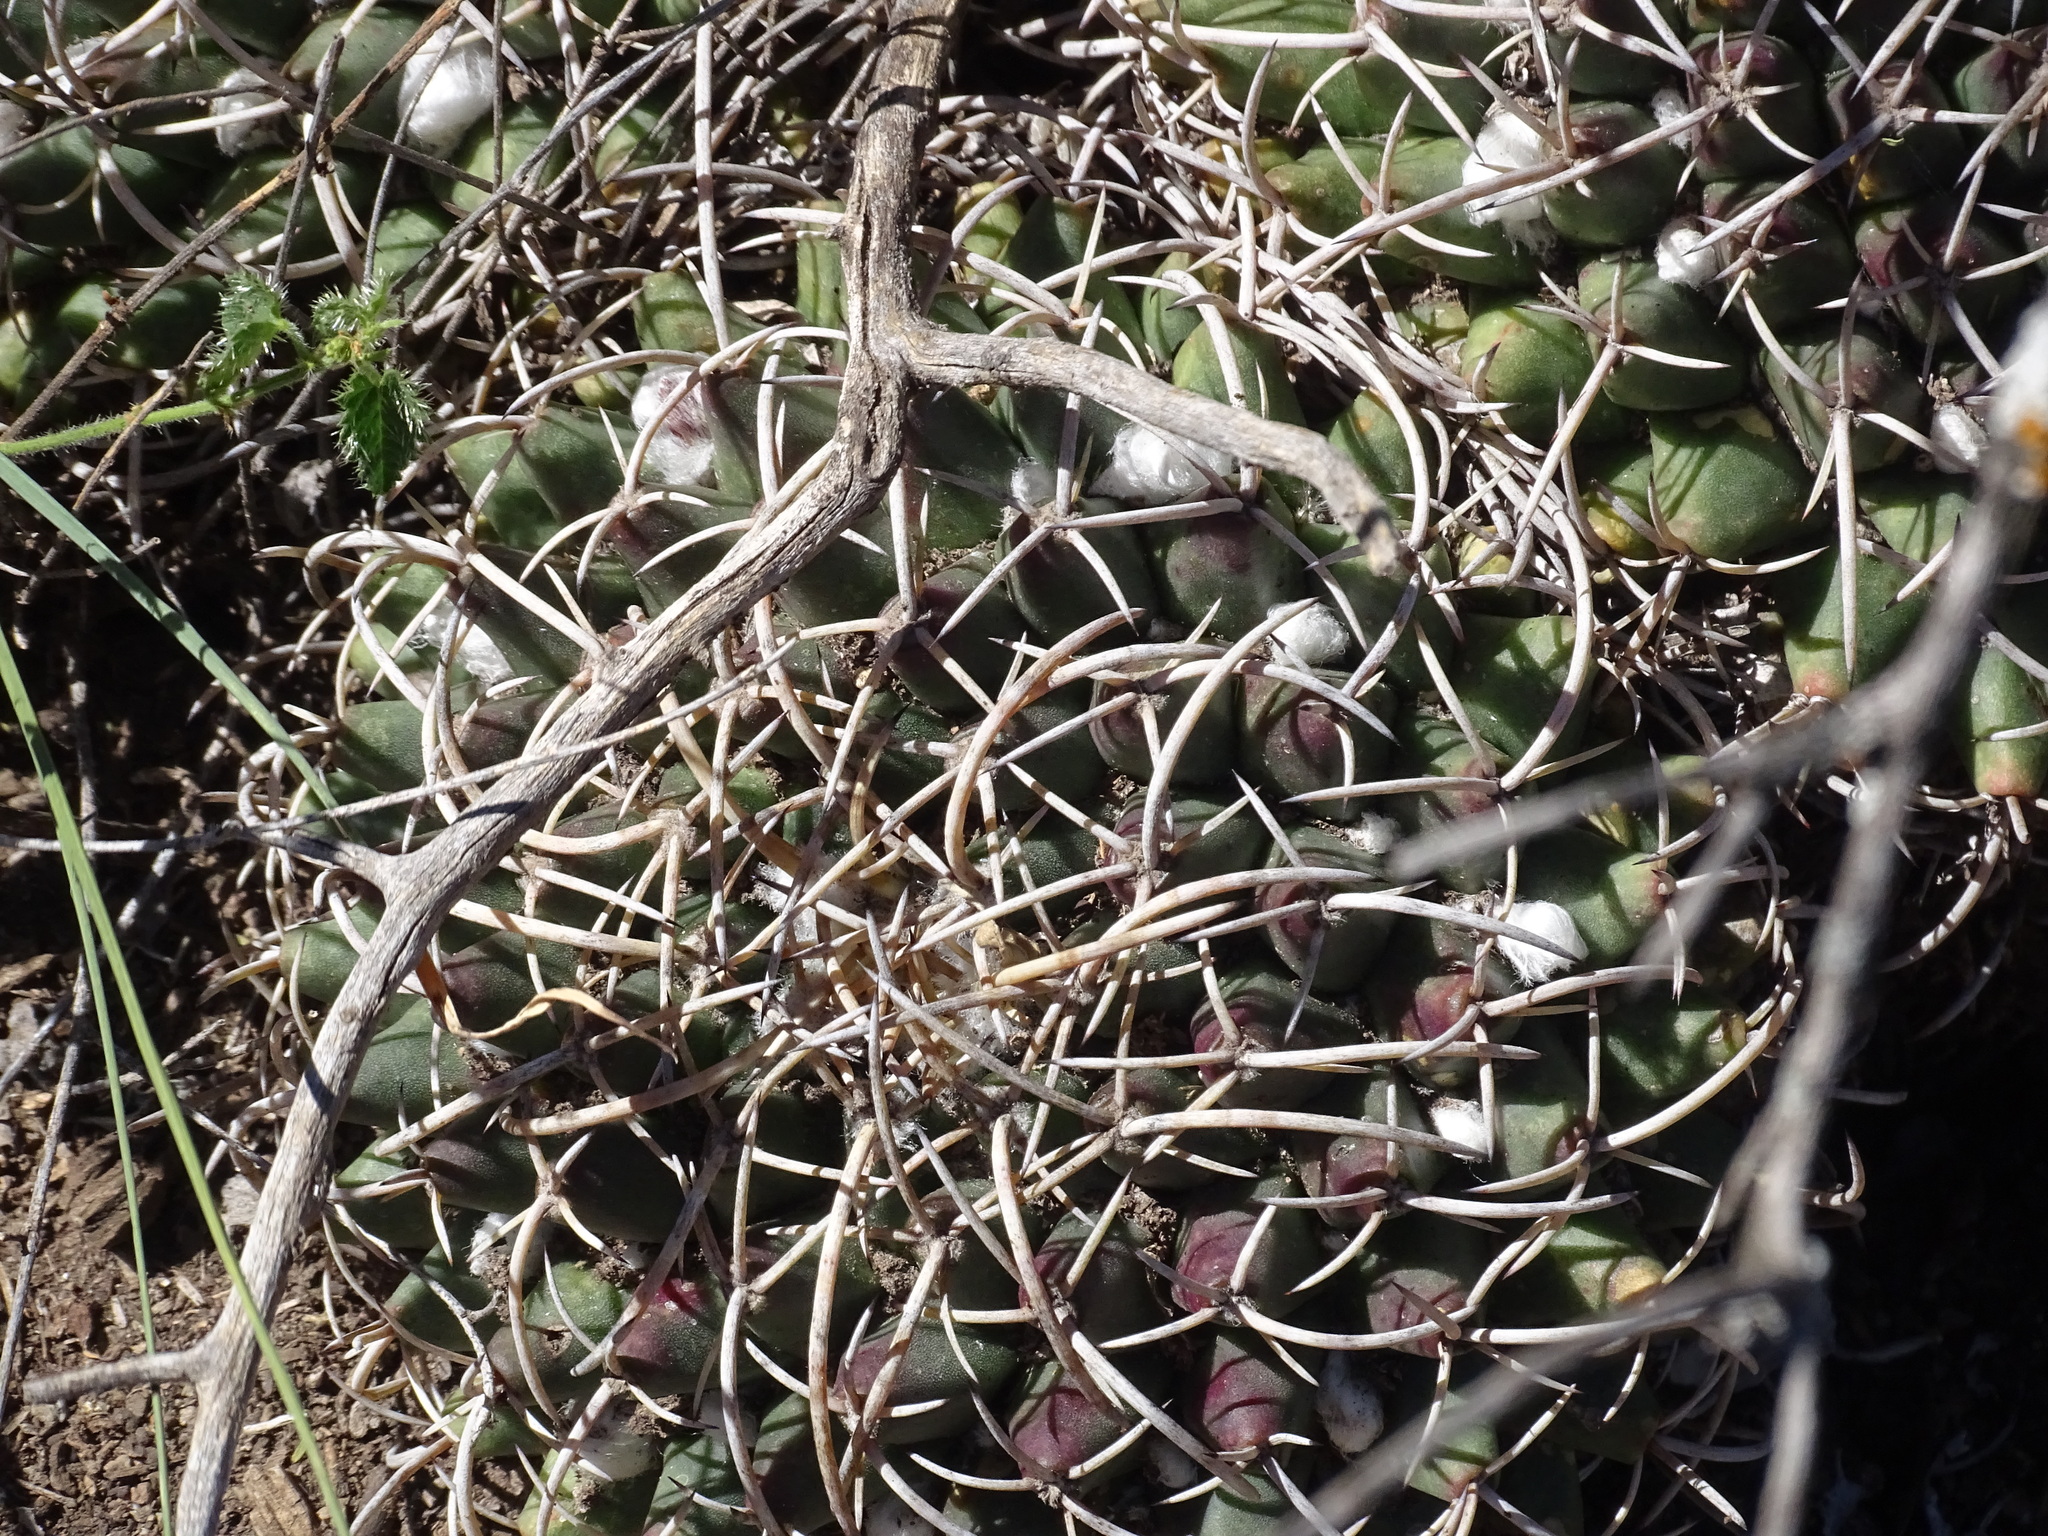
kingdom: Plantae
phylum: Tracheophyta
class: Magnoliopsida
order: Caryophyllales
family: Cactaceae
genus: Mammillaria
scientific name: Mammillaria magnimamma
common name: Mexican pincushion
